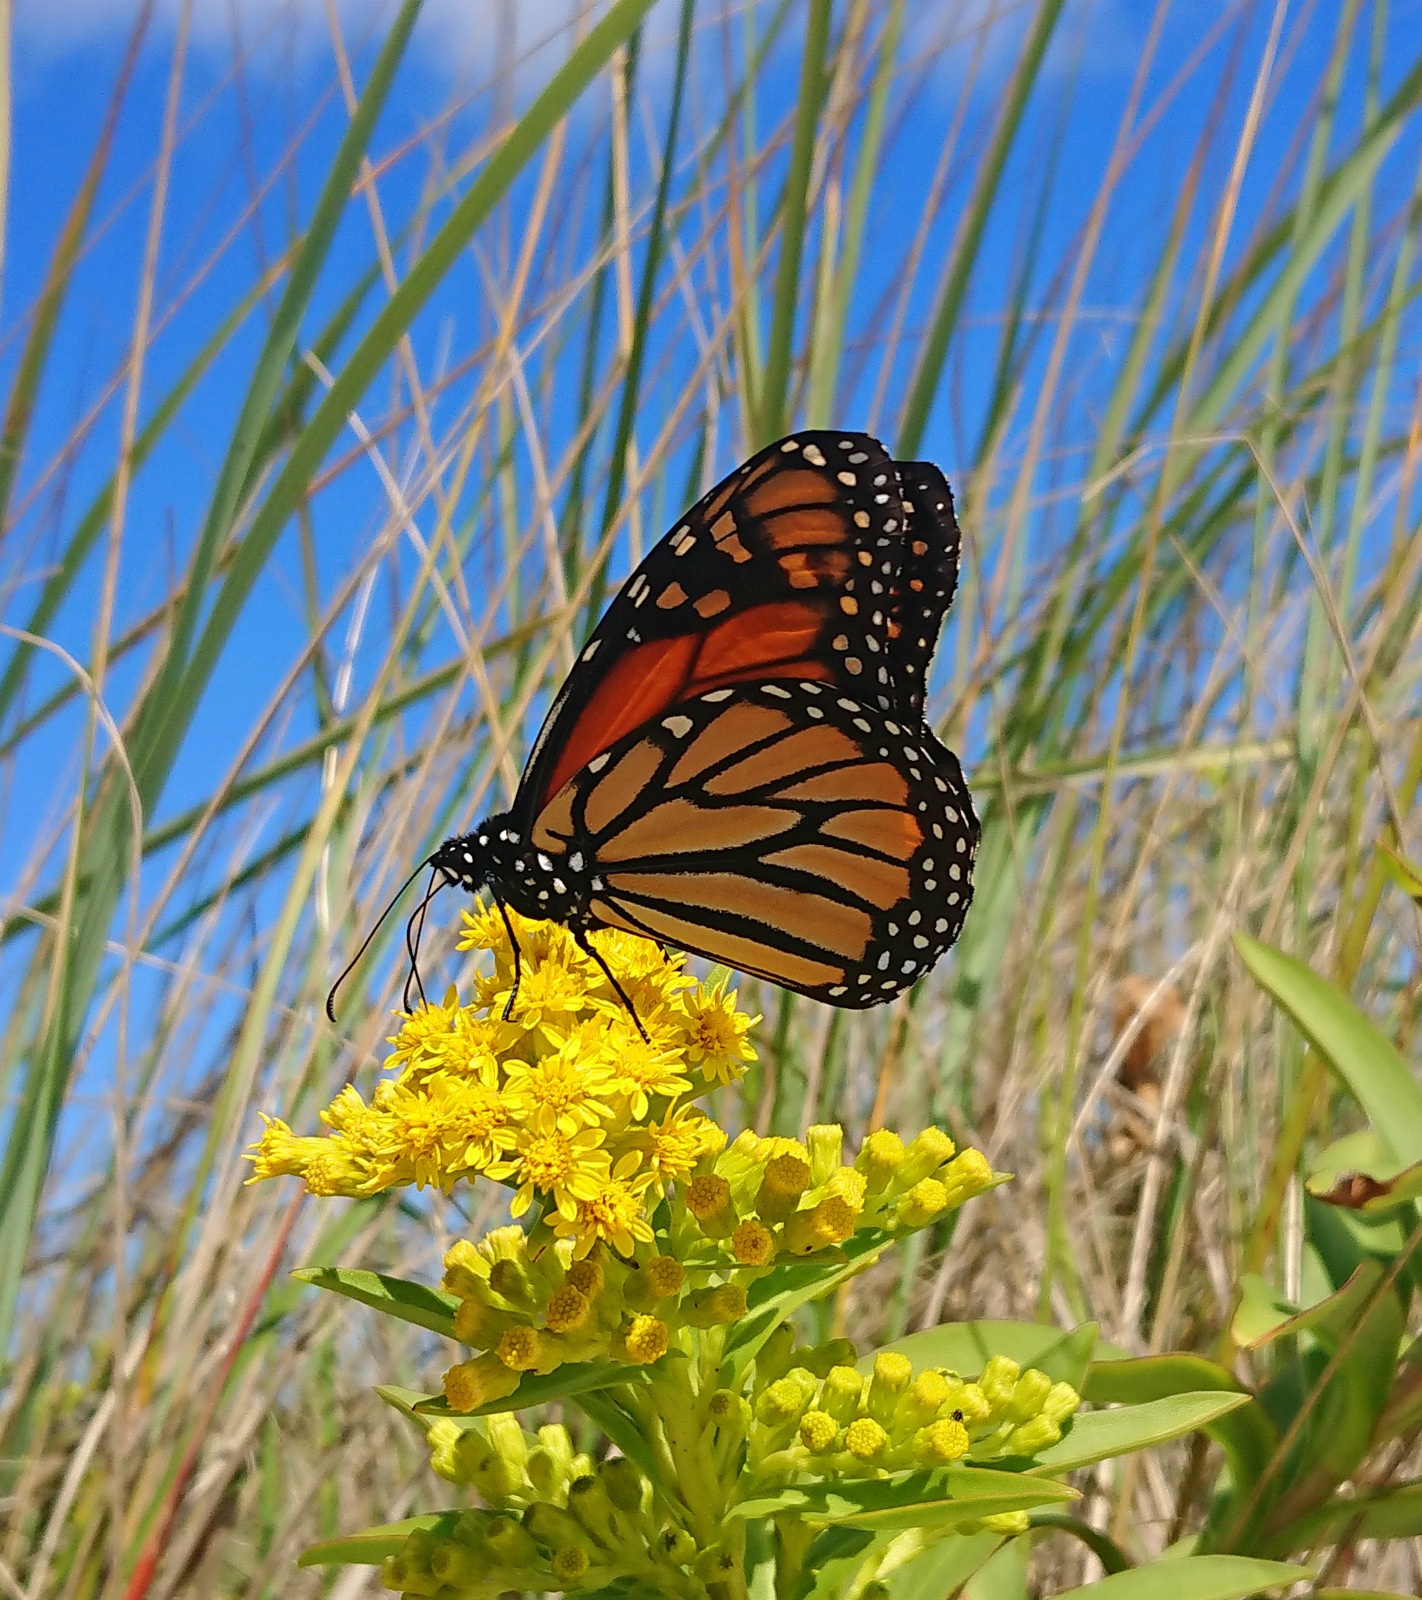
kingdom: Animalia
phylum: Arthropoda
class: Insecta
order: Lepidoptera
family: Nymphalidae
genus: Danaus
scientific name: Danaus plexippus
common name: Monarch
